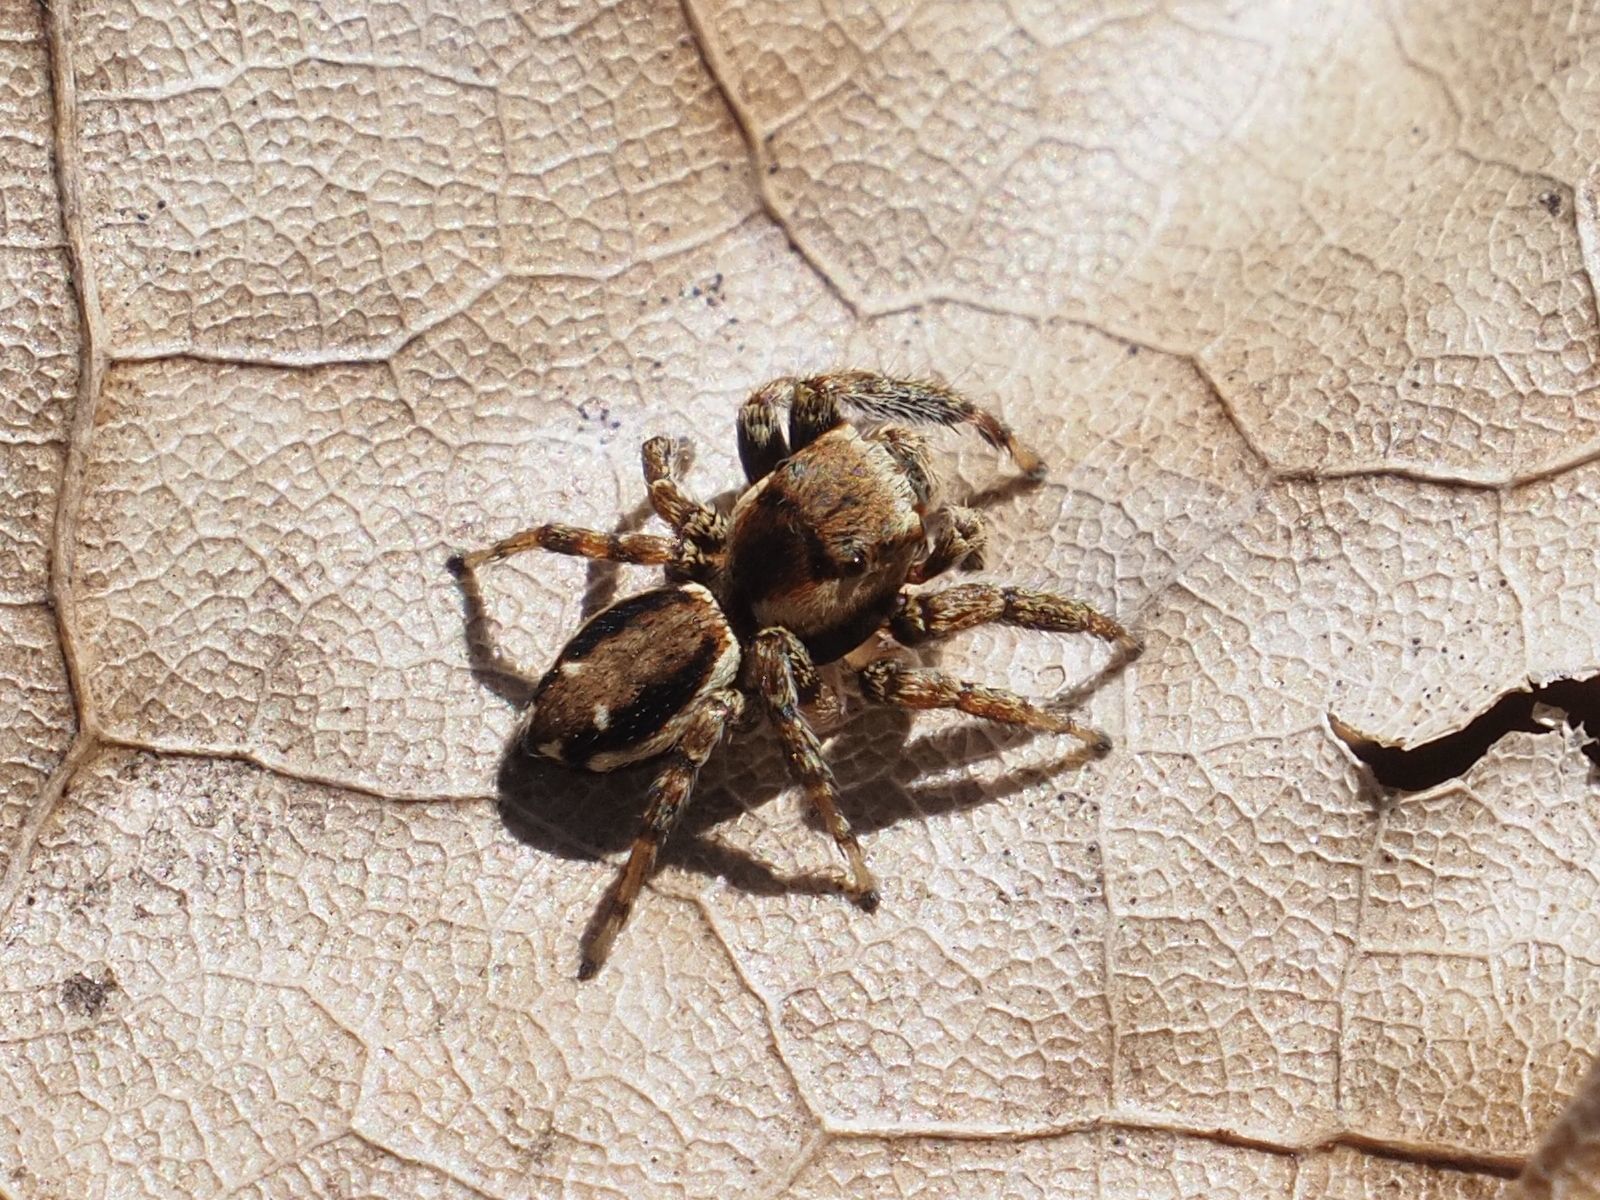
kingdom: Animalia
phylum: Arthropoda
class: Arachnida
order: Araneae
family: Salticidae
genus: Evarcha
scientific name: Evarcha falcata
